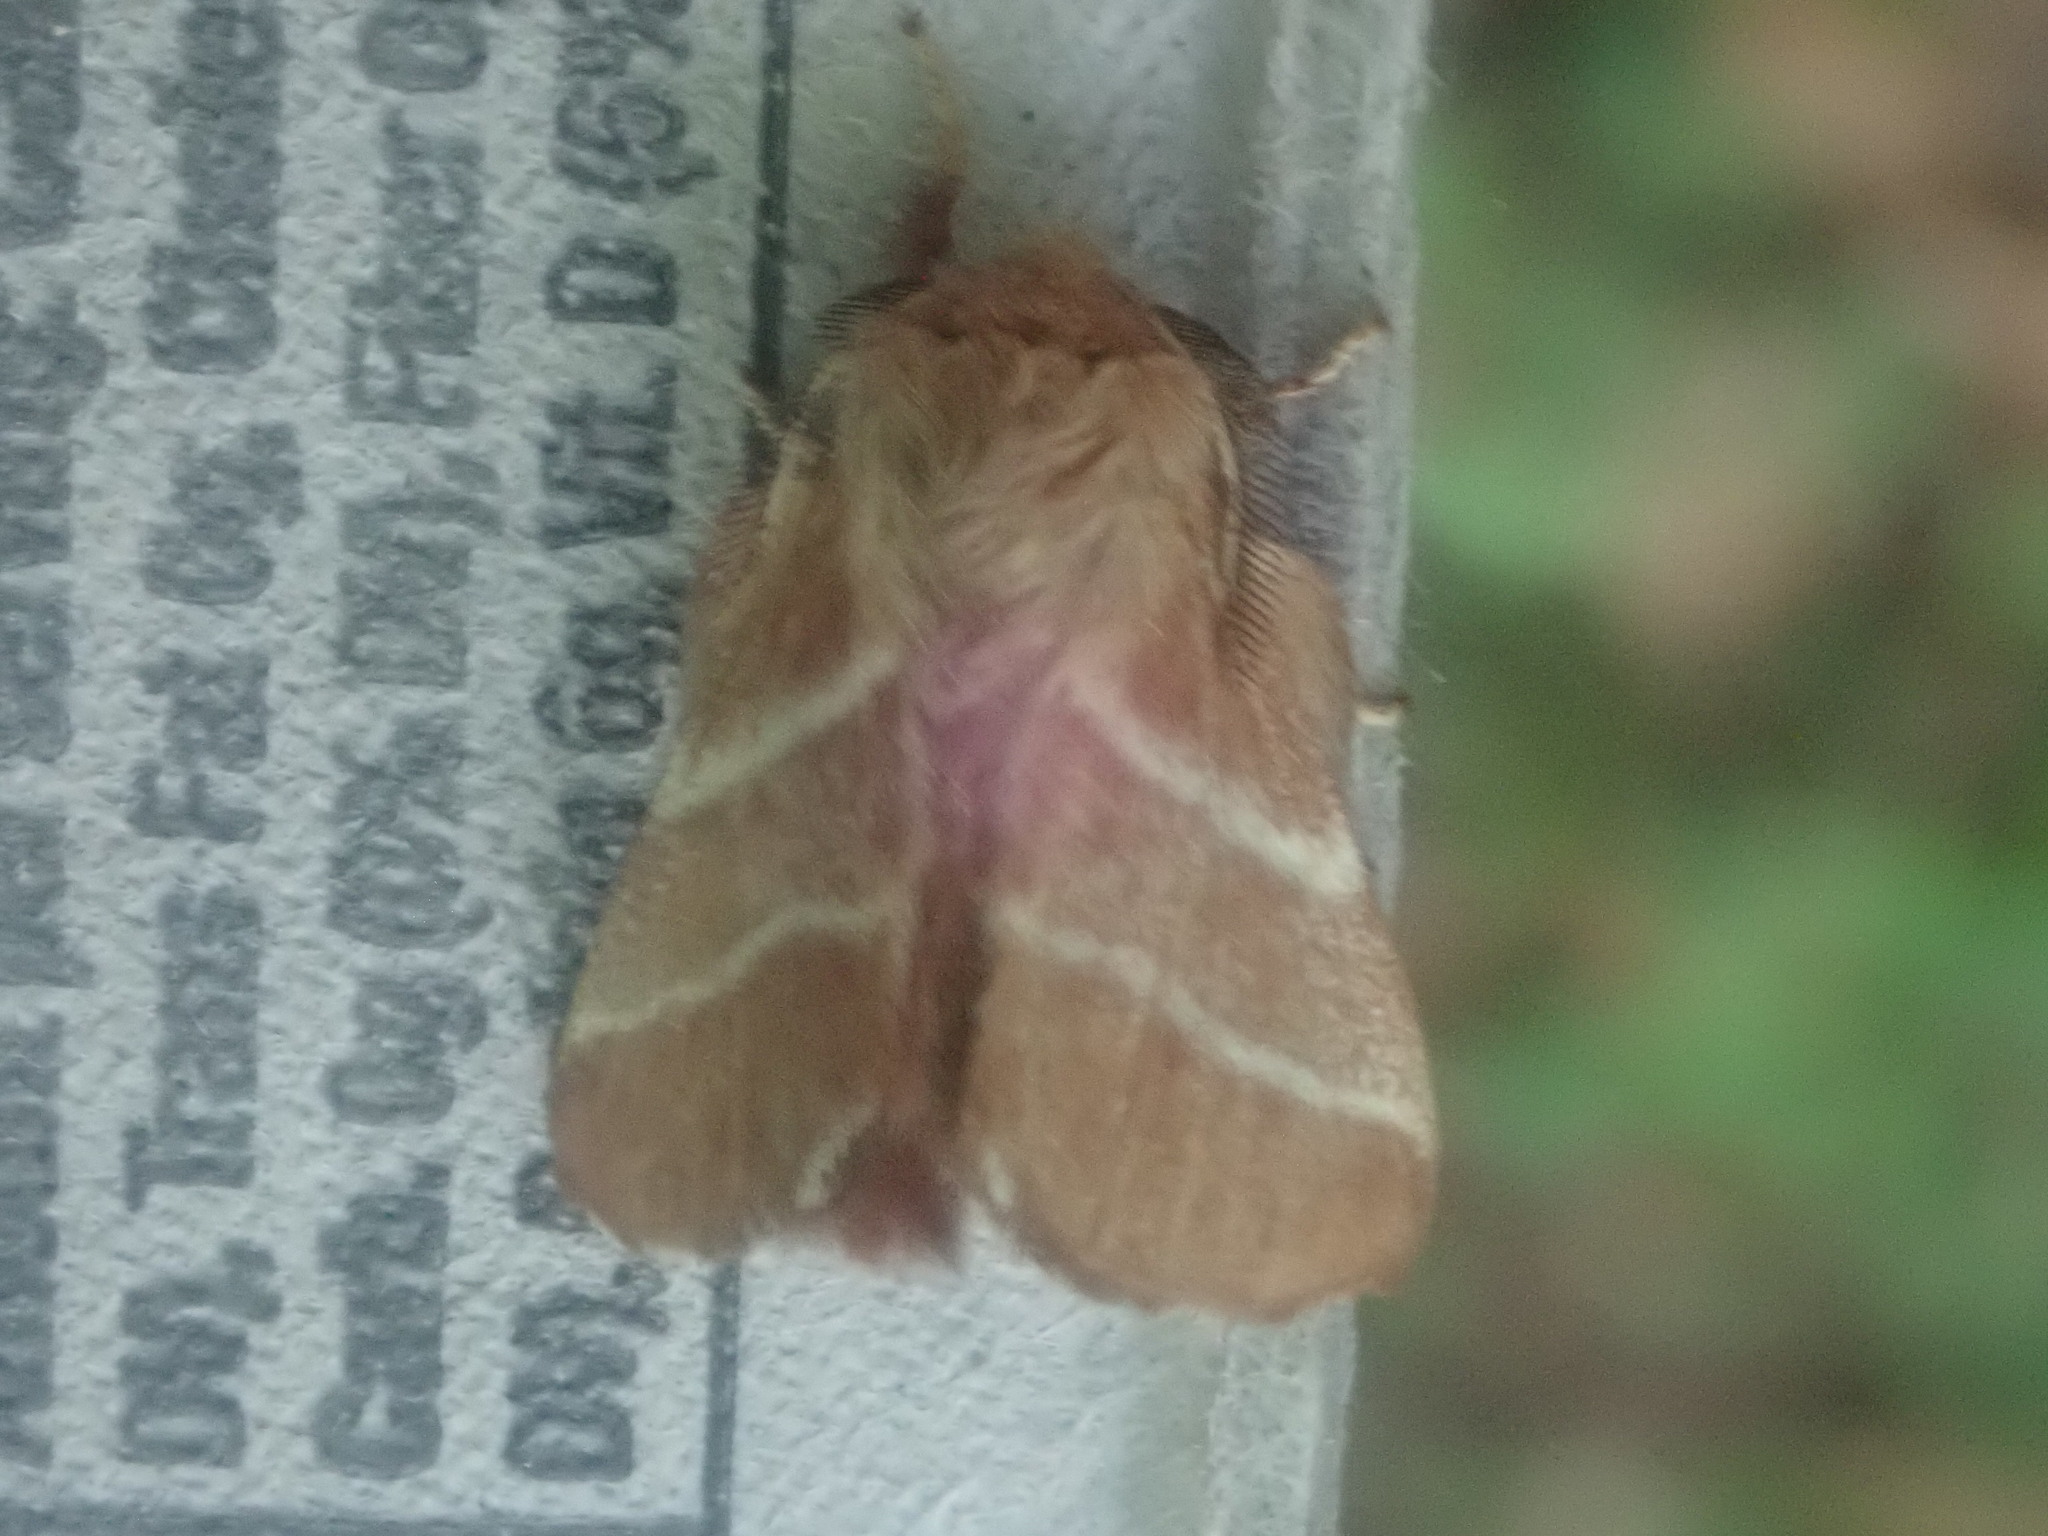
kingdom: Animalia
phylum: Arthropoda
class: Insecta
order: Lepidoptera
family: Lasiocampidae
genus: Malacosoma
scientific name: Malacosoma americana
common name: Eastern tent caterpillar moth
